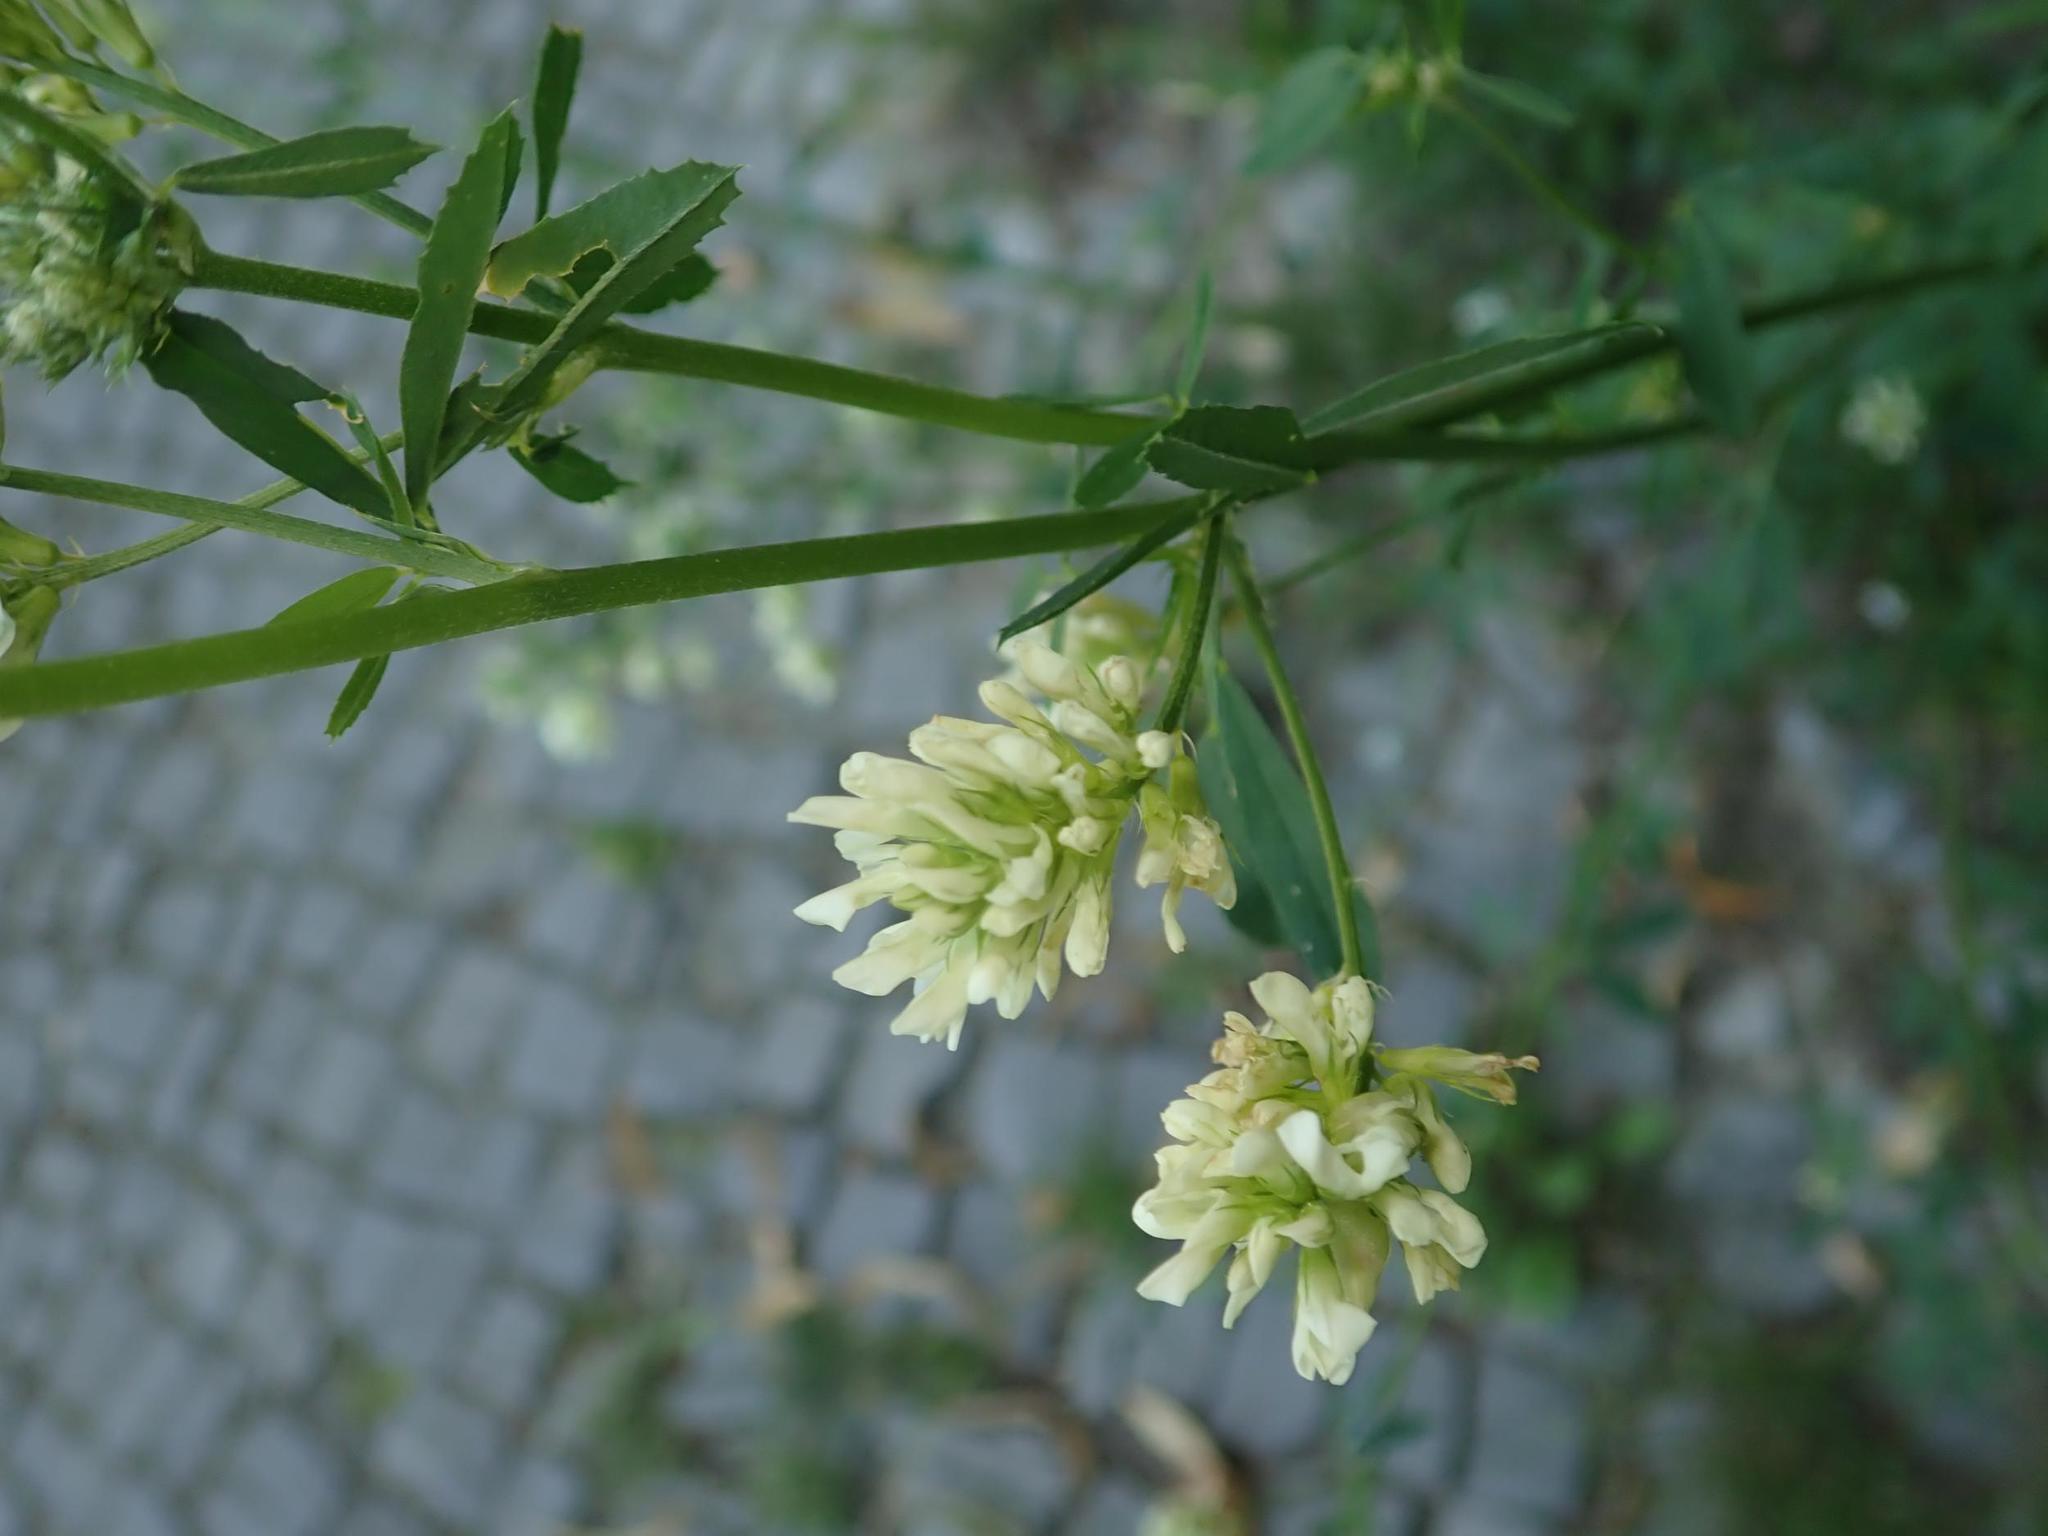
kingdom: Plantae
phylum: Tracheophyta
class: Magnoliopsida
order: Fabales
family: Fabaceae
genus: Medicago
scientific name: Medicago varia
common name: Sand lucerne
